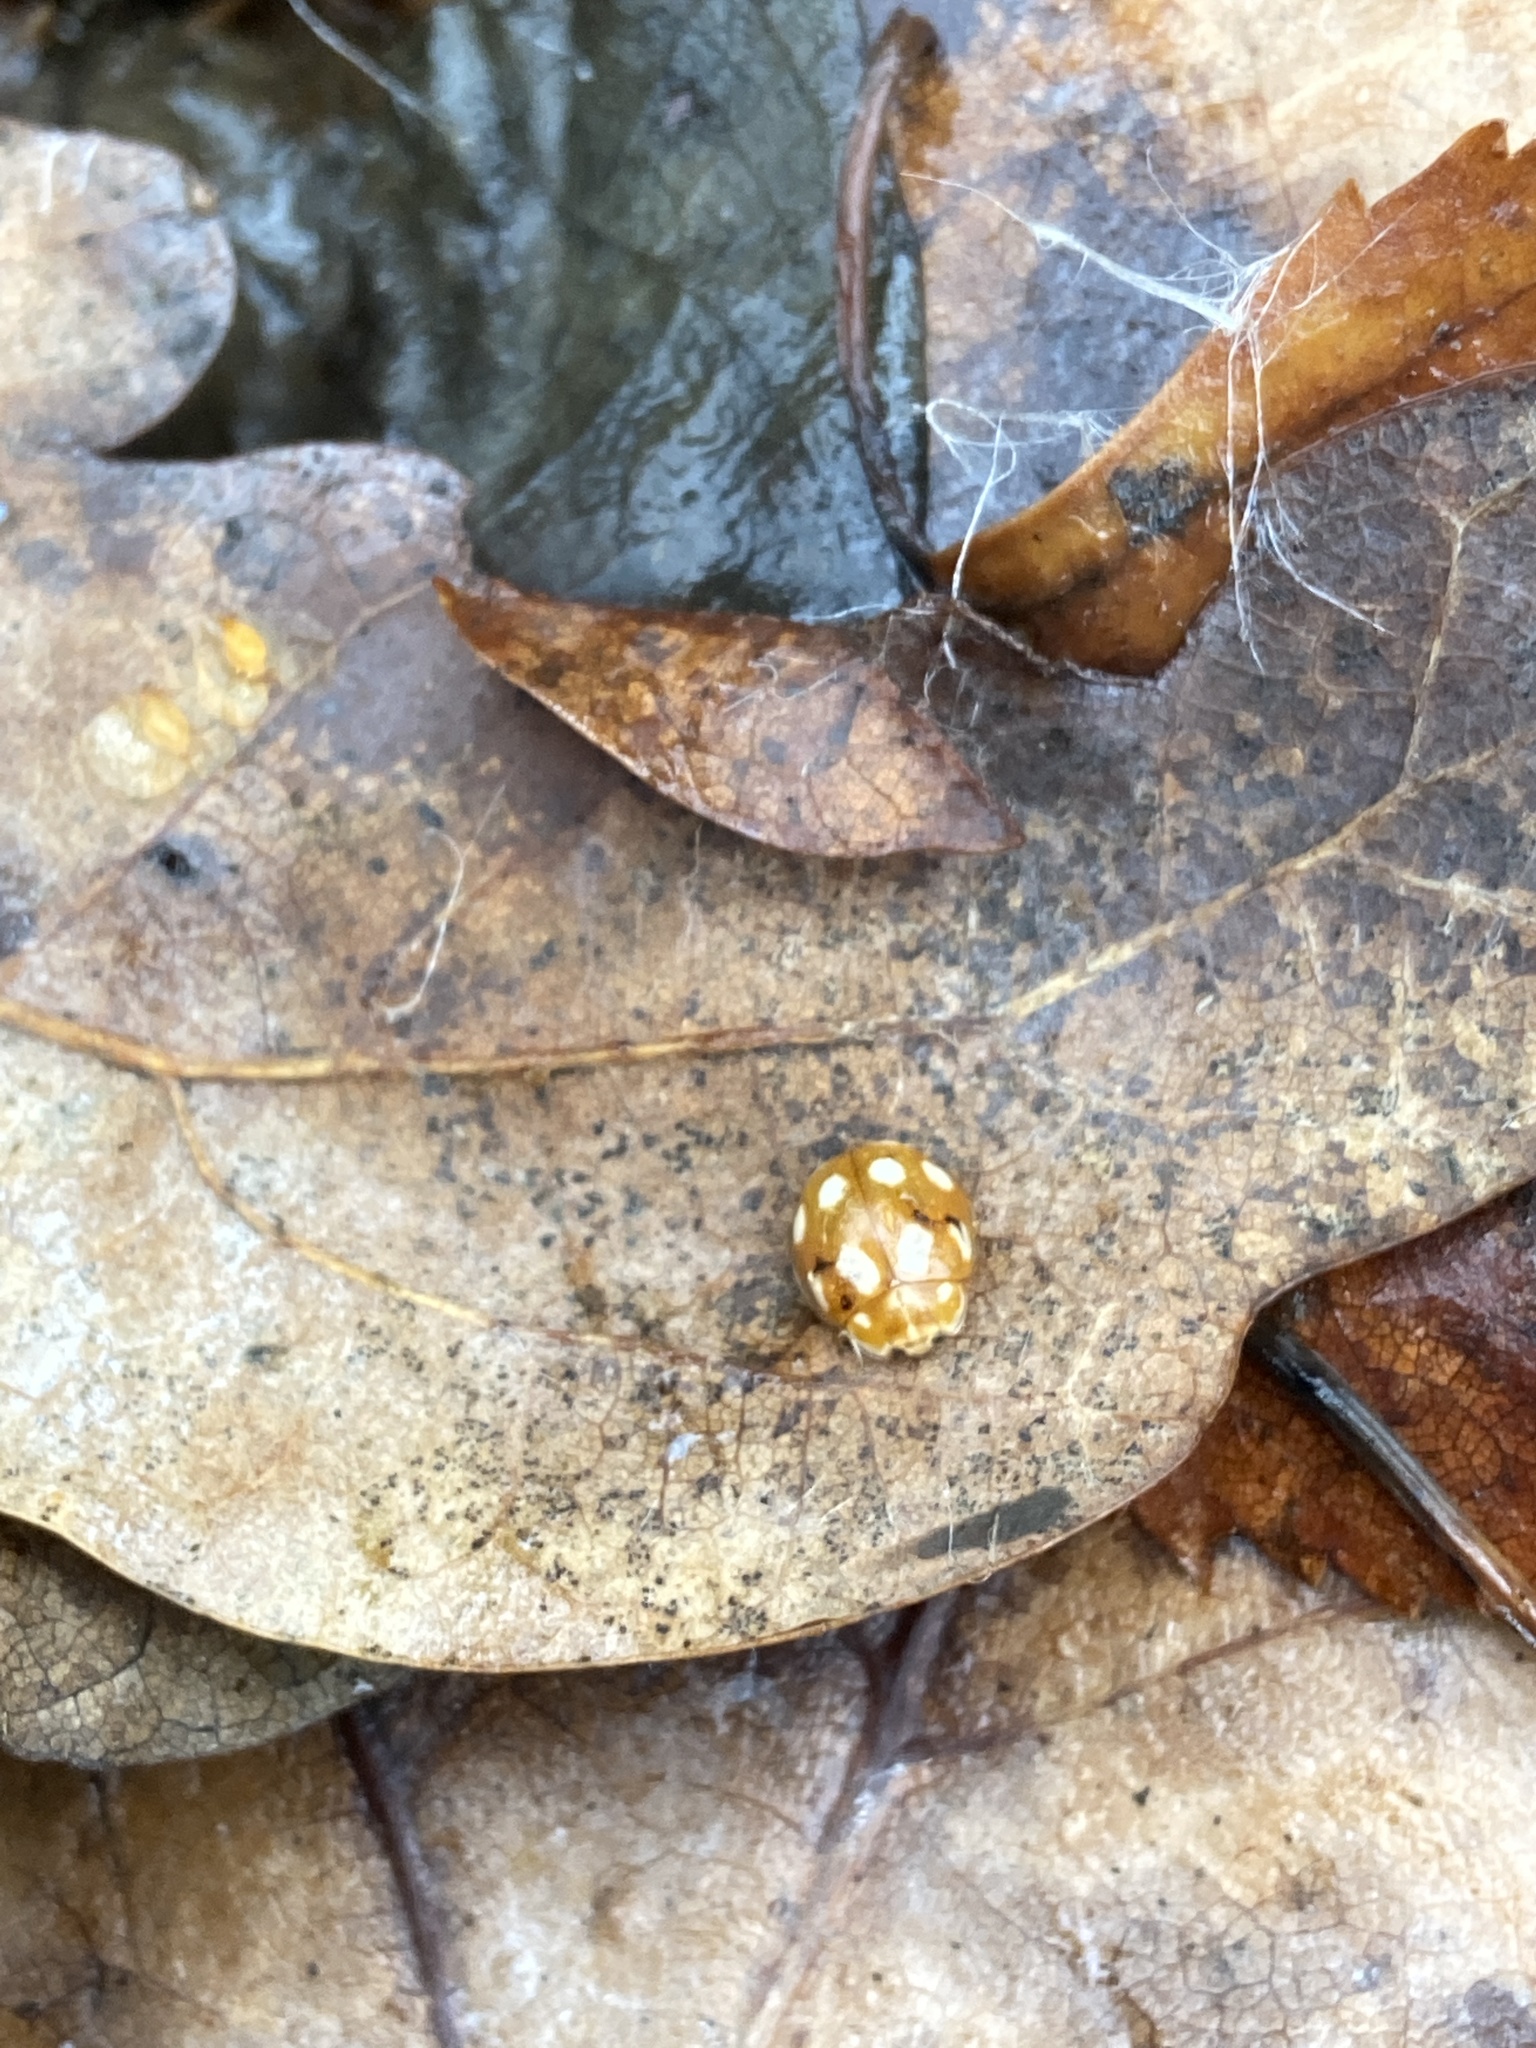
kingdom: Animalia
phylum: Arthropoda
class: Insecta
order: Coleoptera
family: Coccinellidae
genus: Calvia
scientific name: Calvia decemguttata
